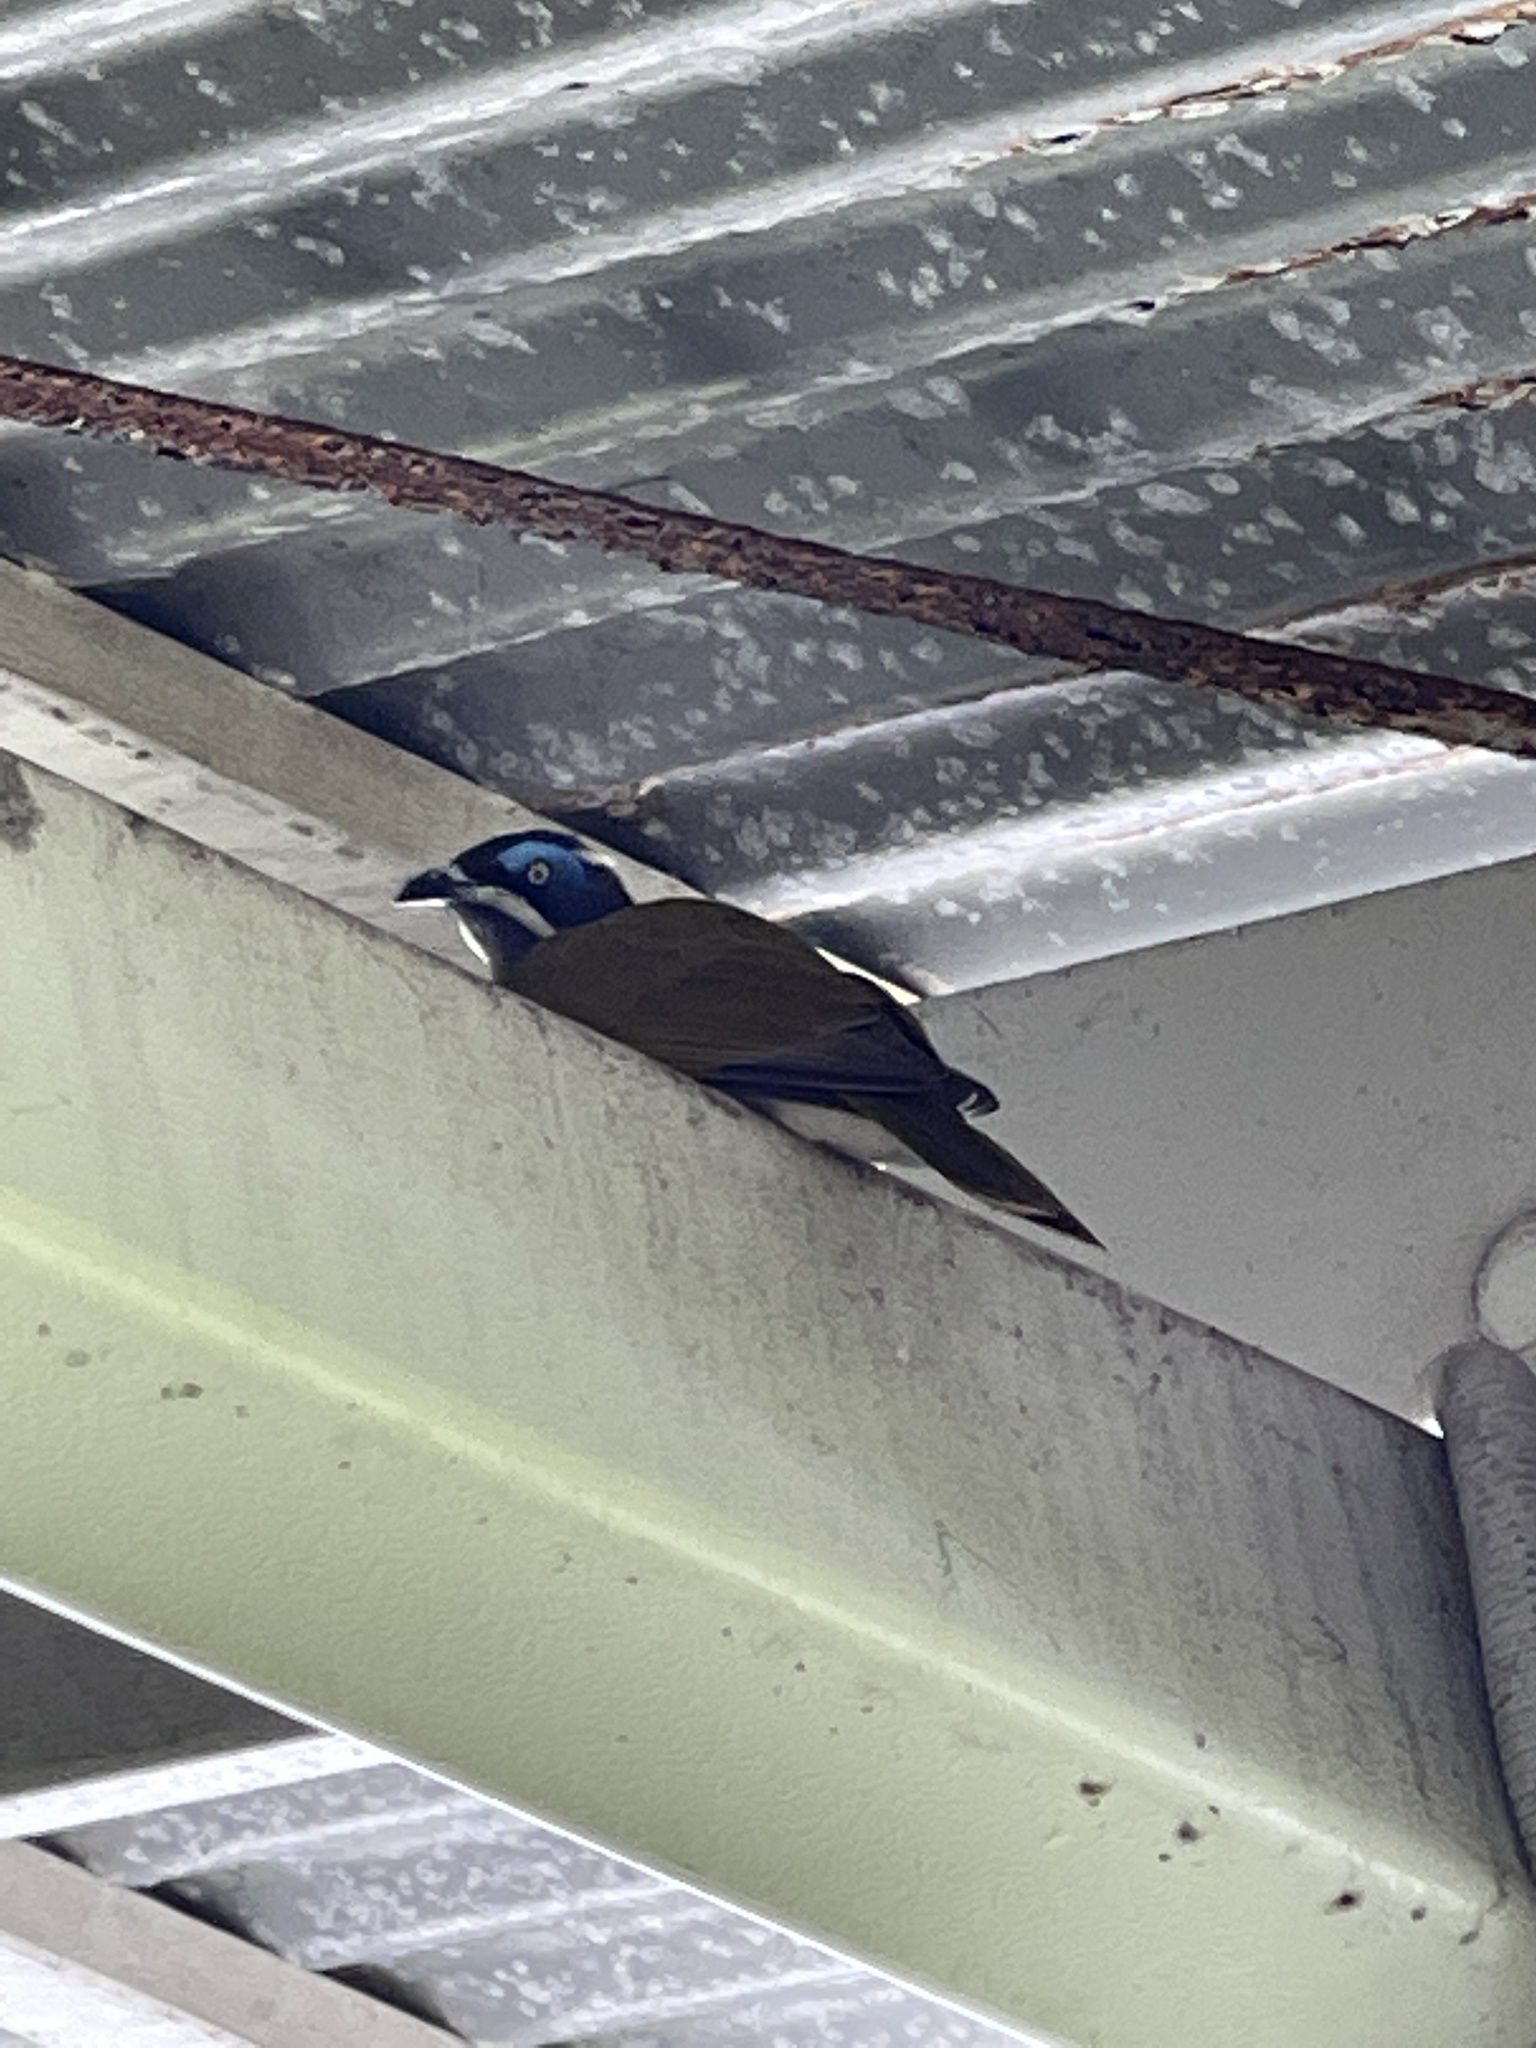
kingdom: Animalia
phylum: Chordata
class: Aves
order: Passeriformes
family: Meliphagidae
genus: Entomyzon
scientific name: Entomyzon cyanotis
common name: Blue-faced honeyeater
